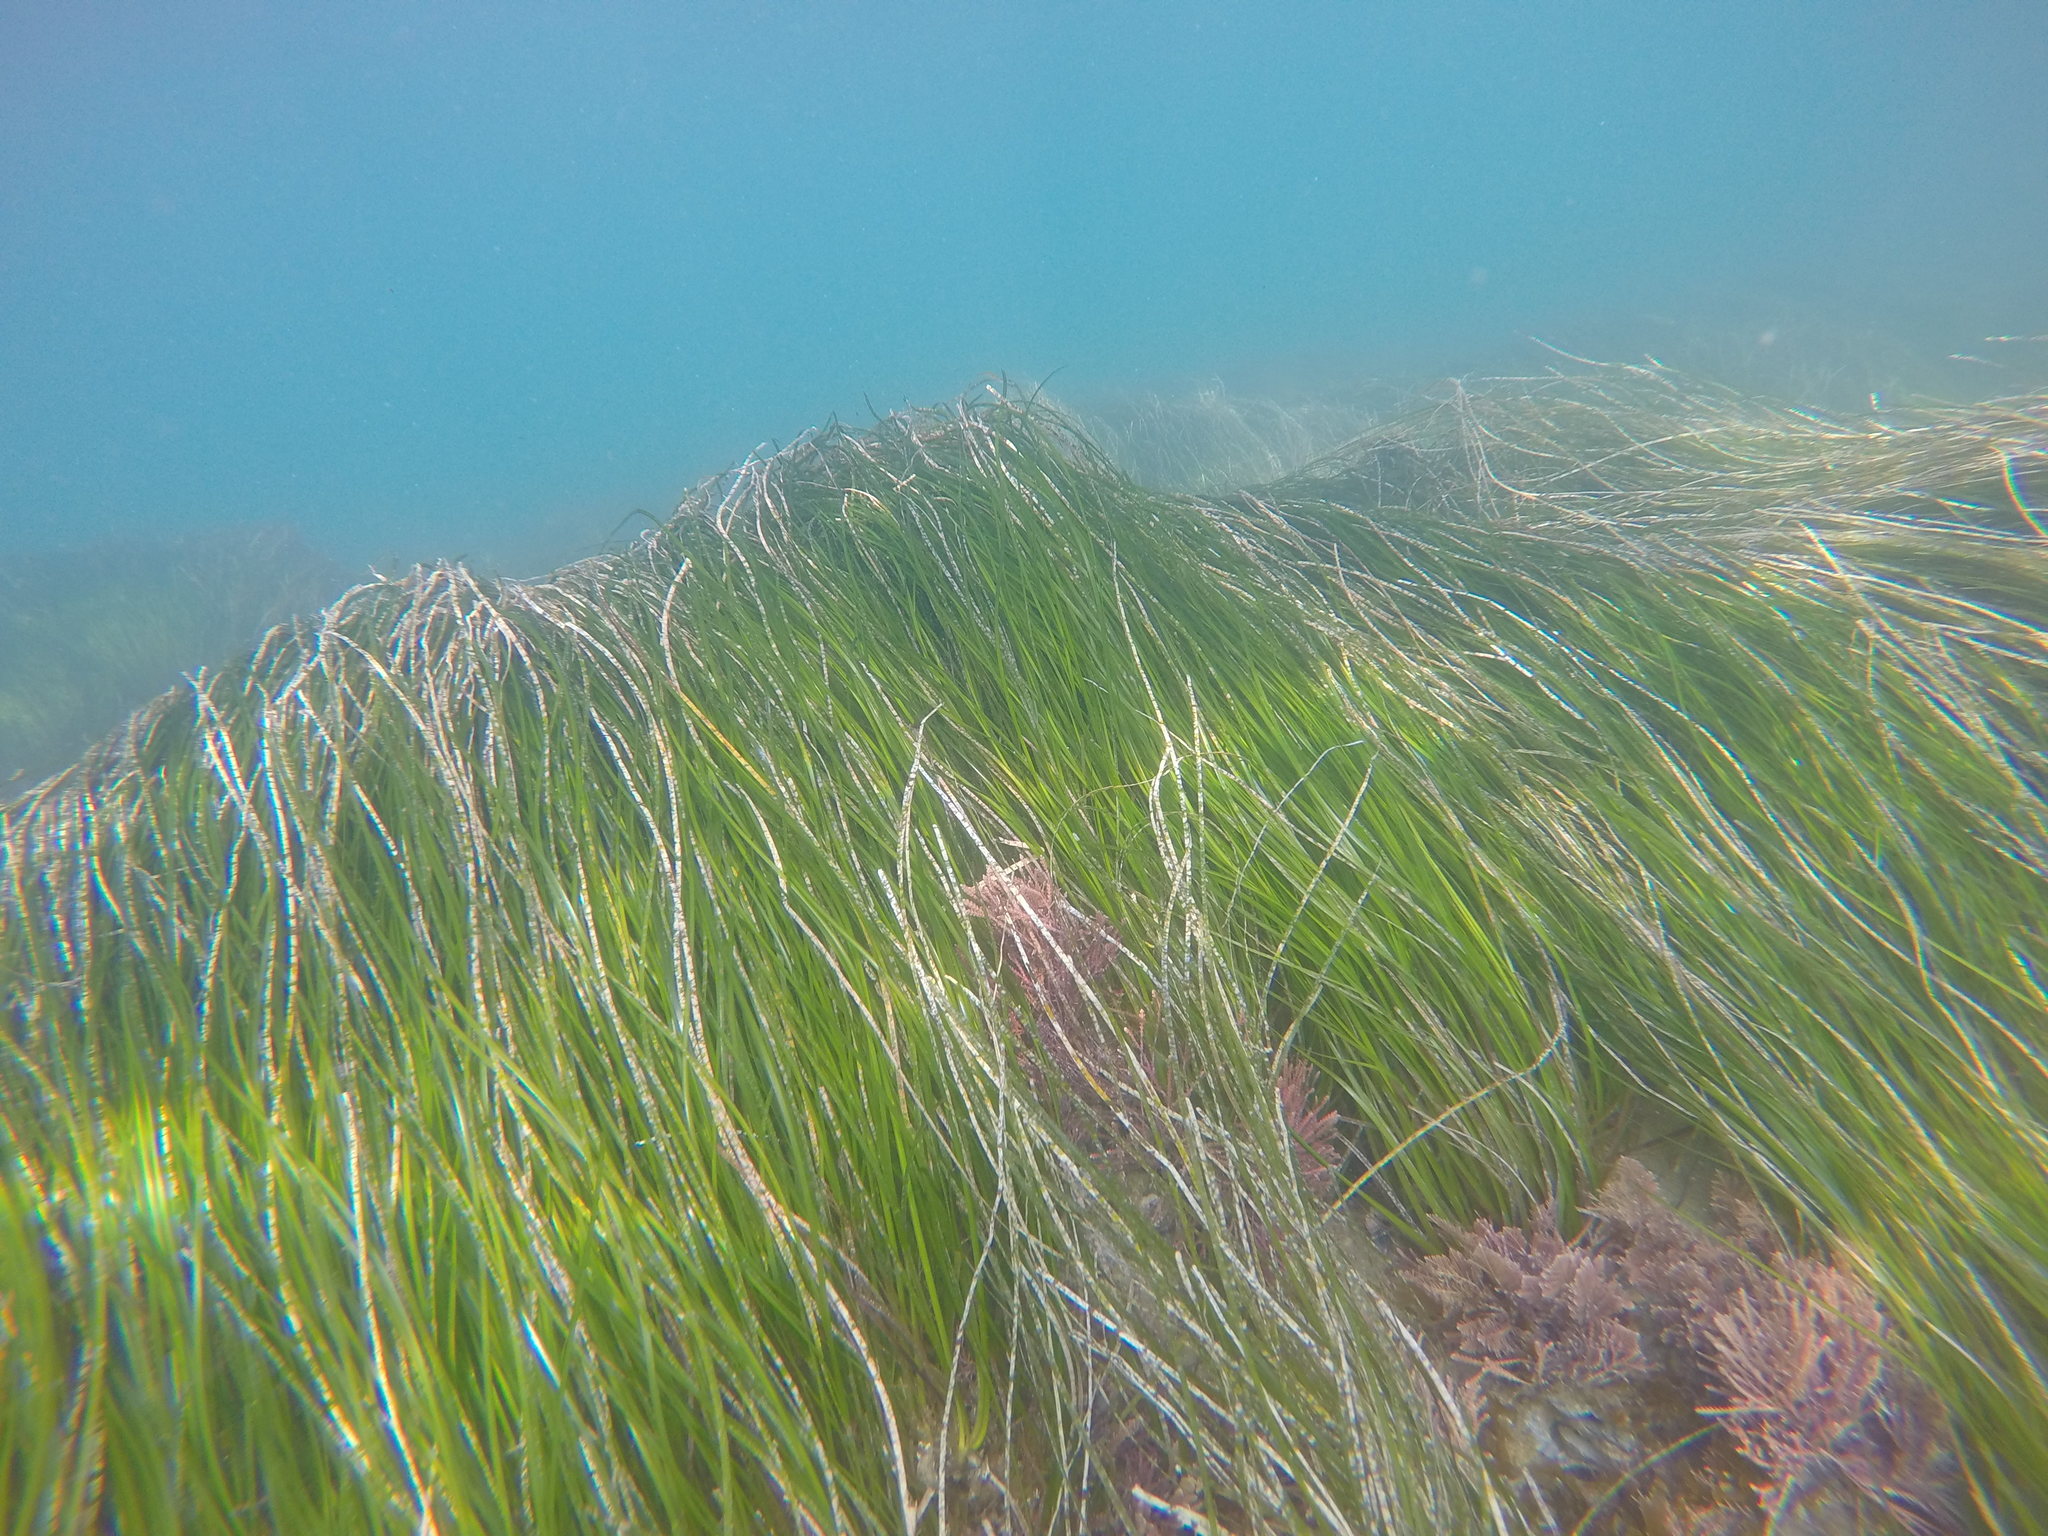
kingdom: Plantae
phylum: Tracheophyta
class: Liliopsida
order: Alismatales
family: Zosteraceae
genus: Phyllospadix
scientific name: Phyllospadix torreyi
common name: Surfgrass
